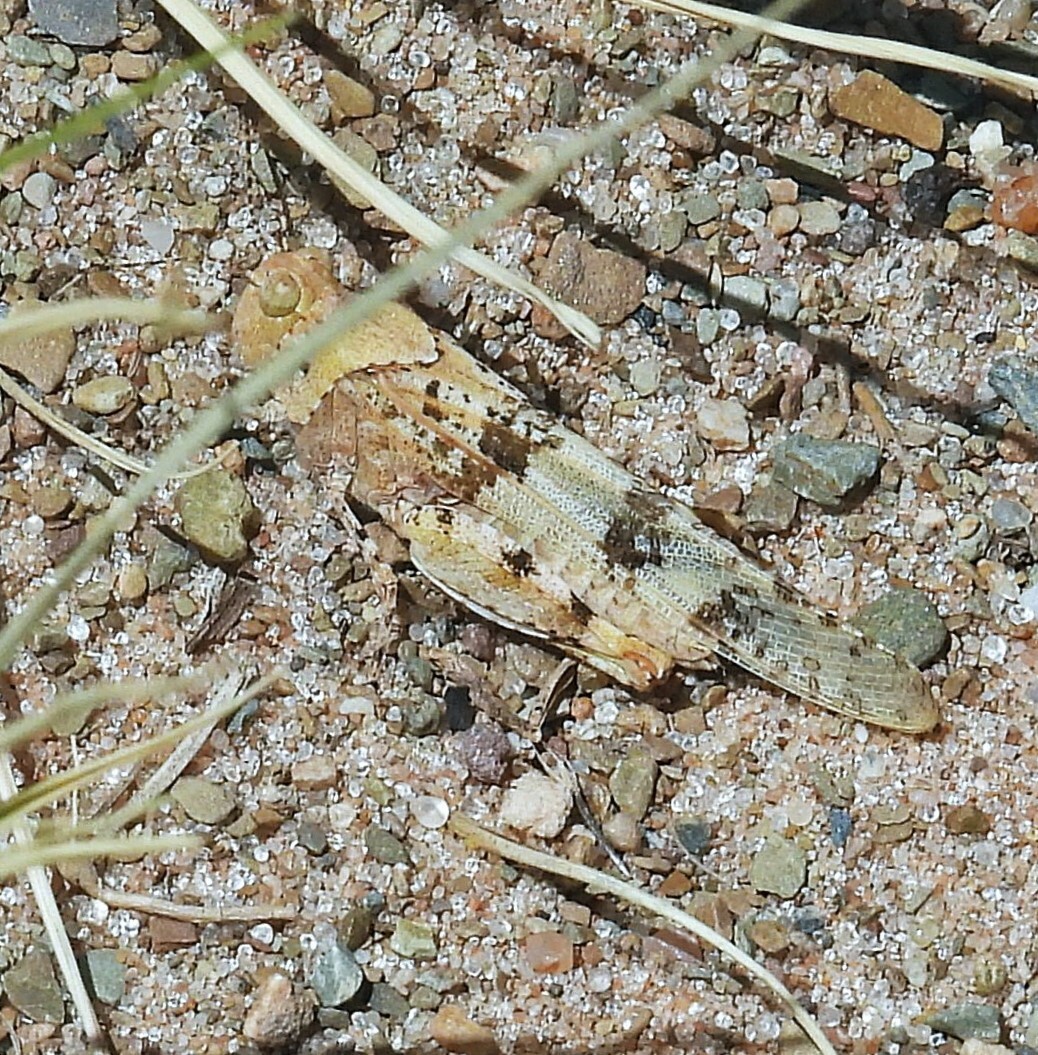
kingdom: Animalia
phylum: Arthropoda
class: Insecta
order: Orthoptera
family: Acrididae
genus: Trimerotropis
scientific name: Trimerotropis pallidipennis
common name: Pallid-winged grasshopper
